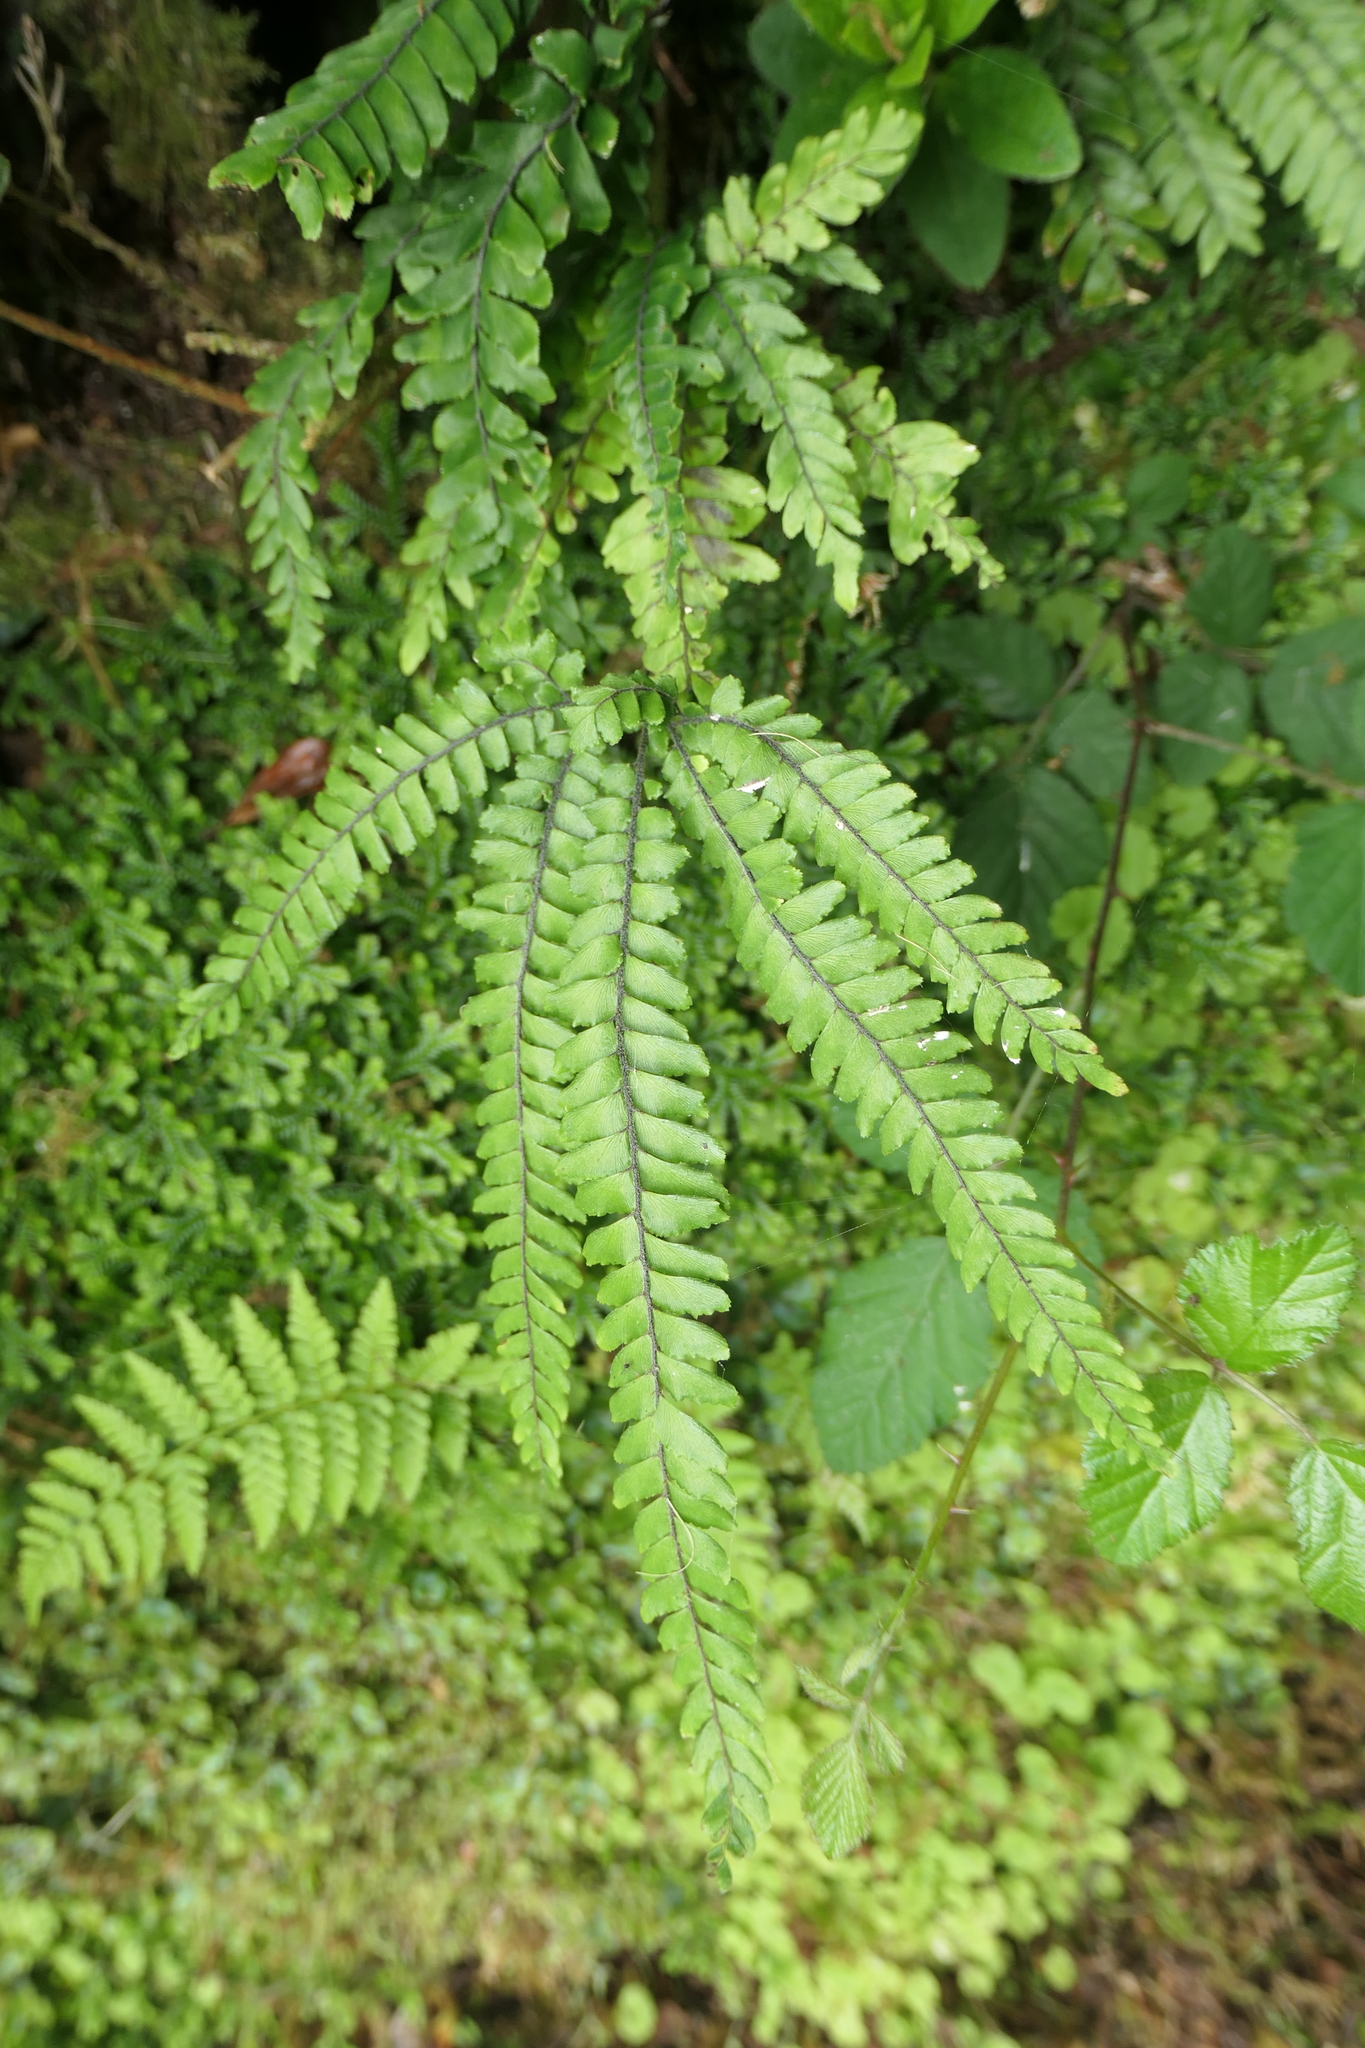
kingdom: Plantae
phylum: Tracheophyta
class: Polypodiopsida
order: Polypodiales
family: Pteridaceae
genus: Adiantum
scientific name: Adiantum hispidulum
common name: Rough maidenhair
